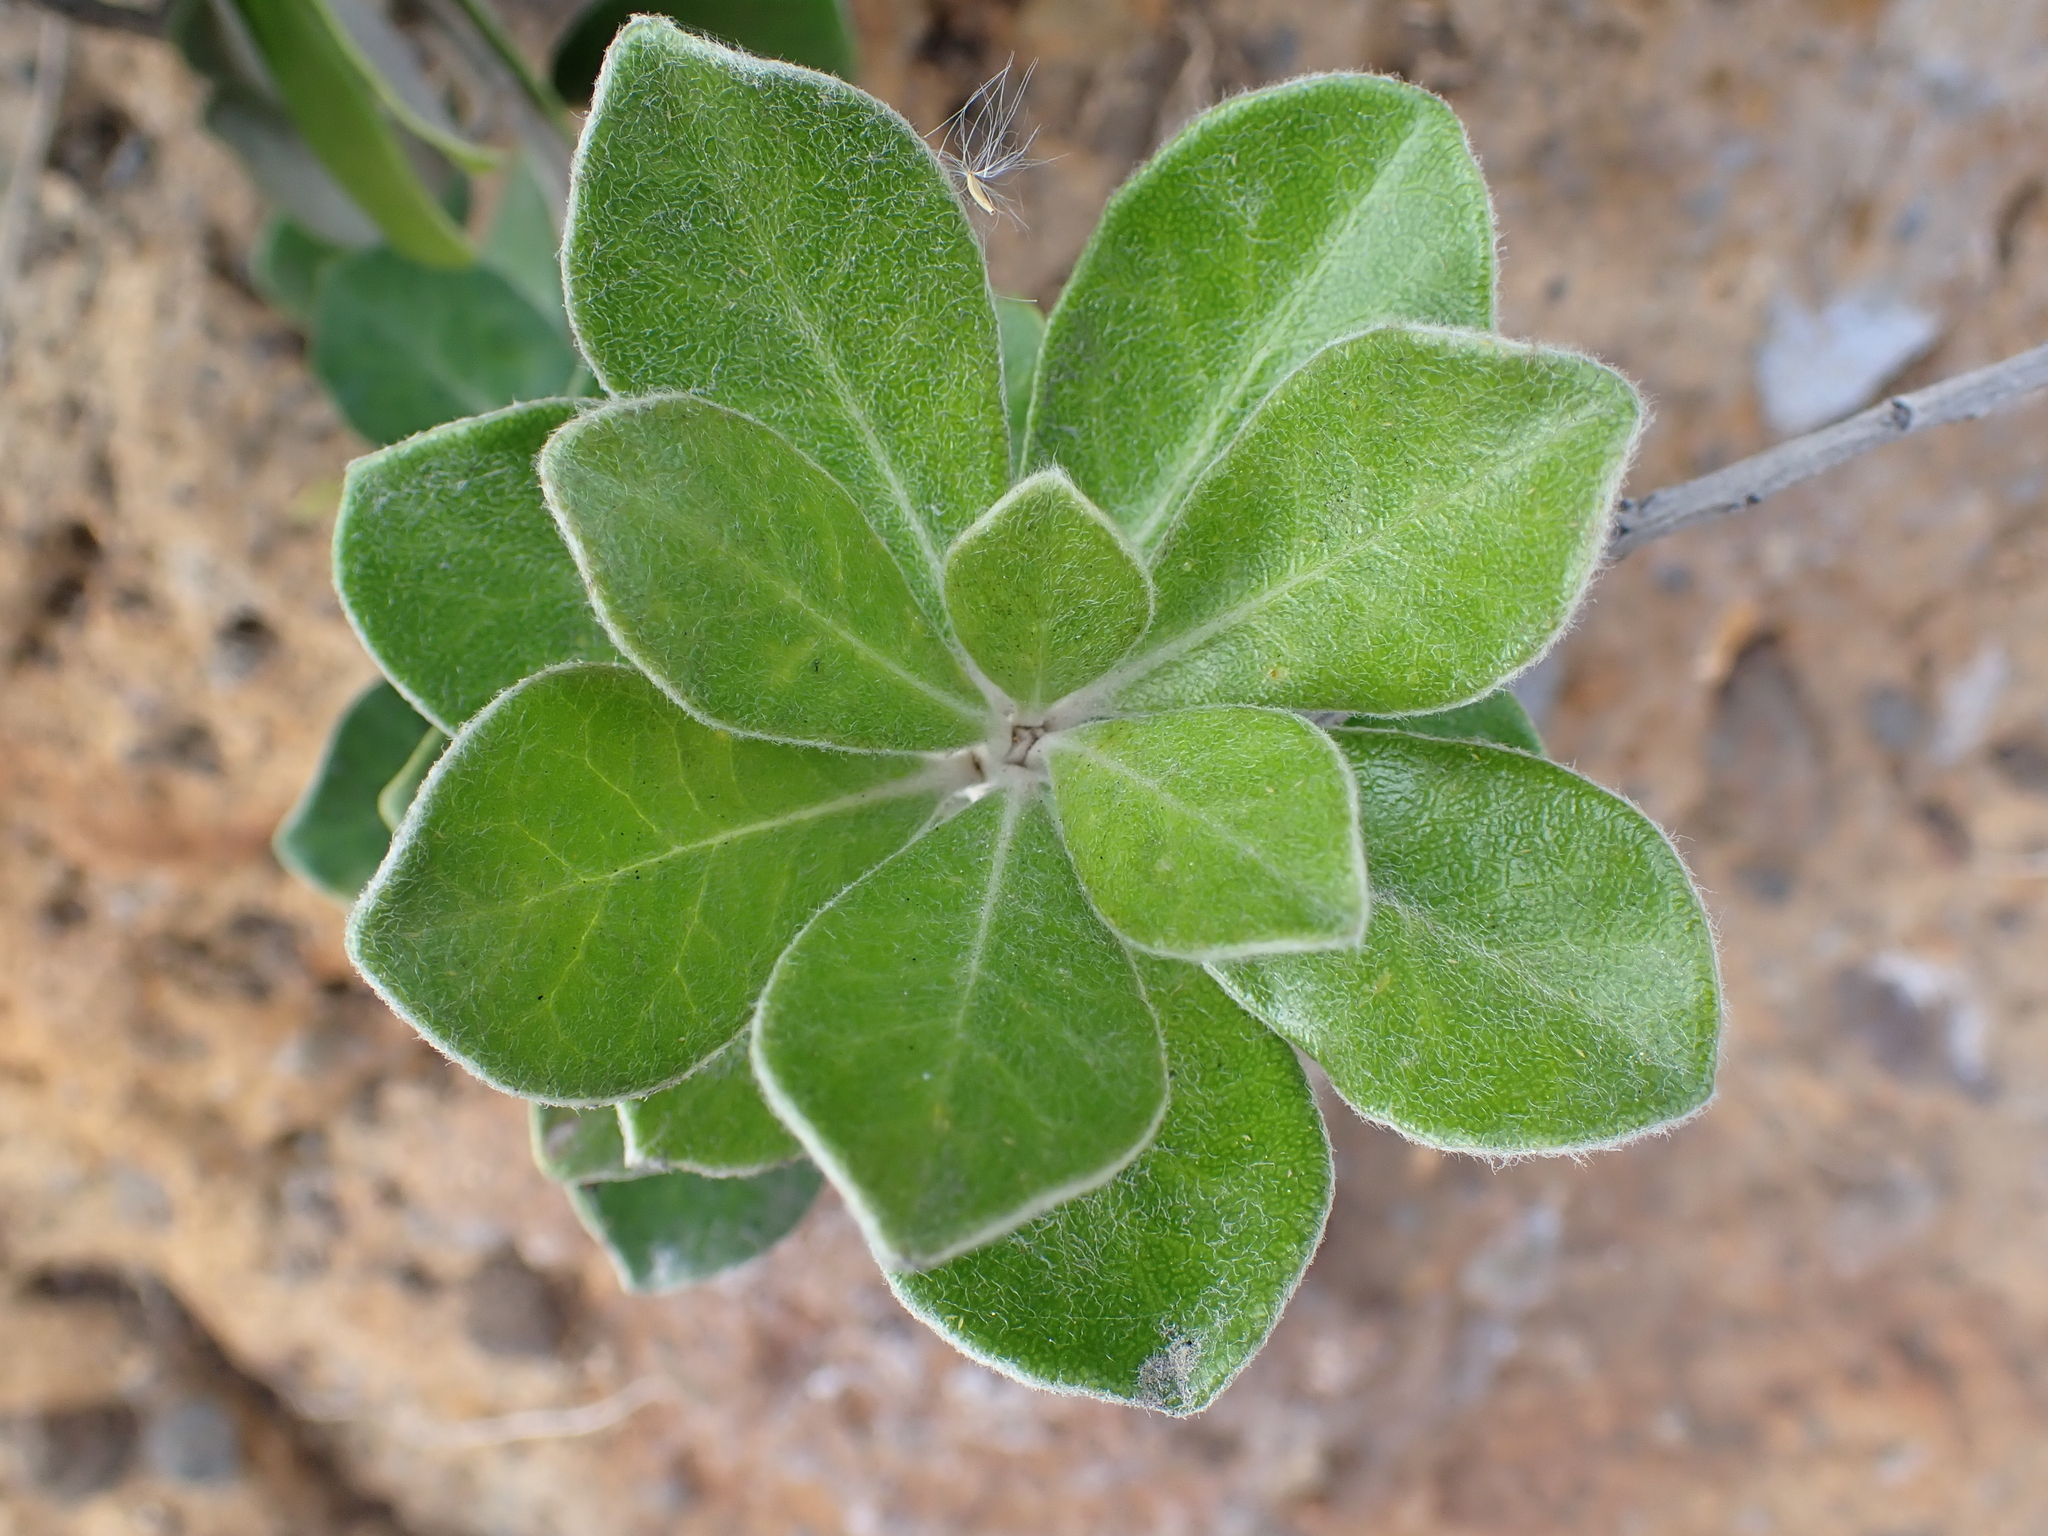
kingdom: Plantae
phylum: Tracheophyta
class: Magnoliopsida
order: Apiales
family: Pittosporaceae
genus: Pittosporum
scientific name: Pittosporum crassifolium
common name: Karo
